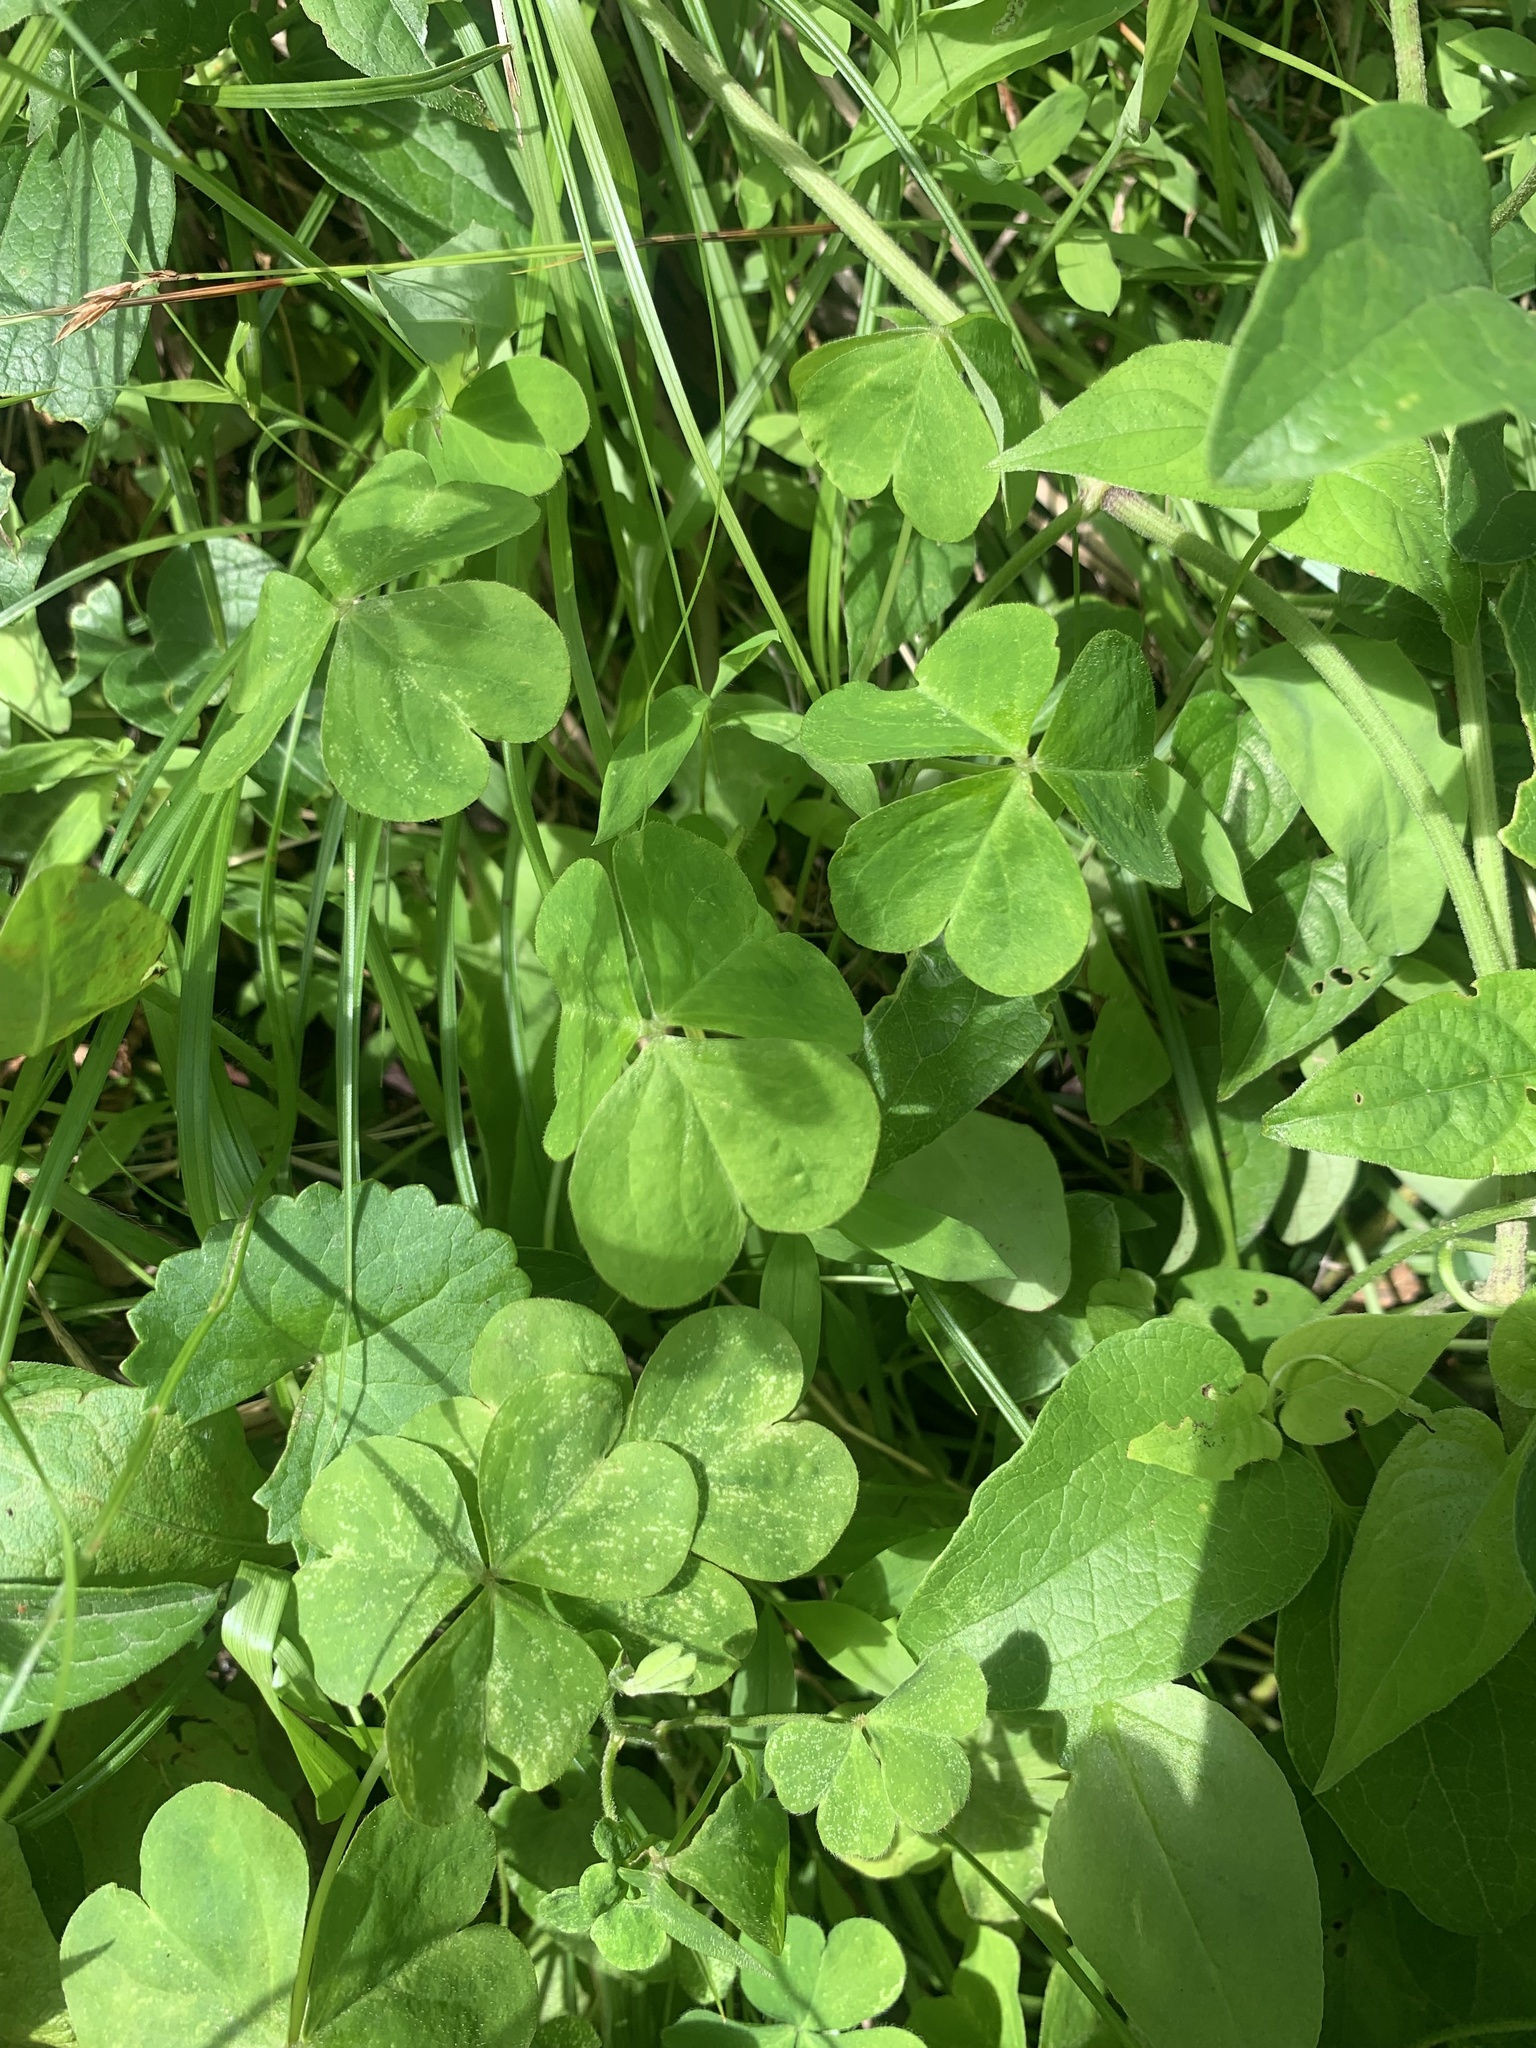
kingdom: Plantae
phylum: Tracheophyta
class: Magnoliopsida
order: Oxalidales
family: Oxalidaceae
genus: Oxalis
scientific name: Oxalis debilis
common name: Large-flowered pink-sorrel
